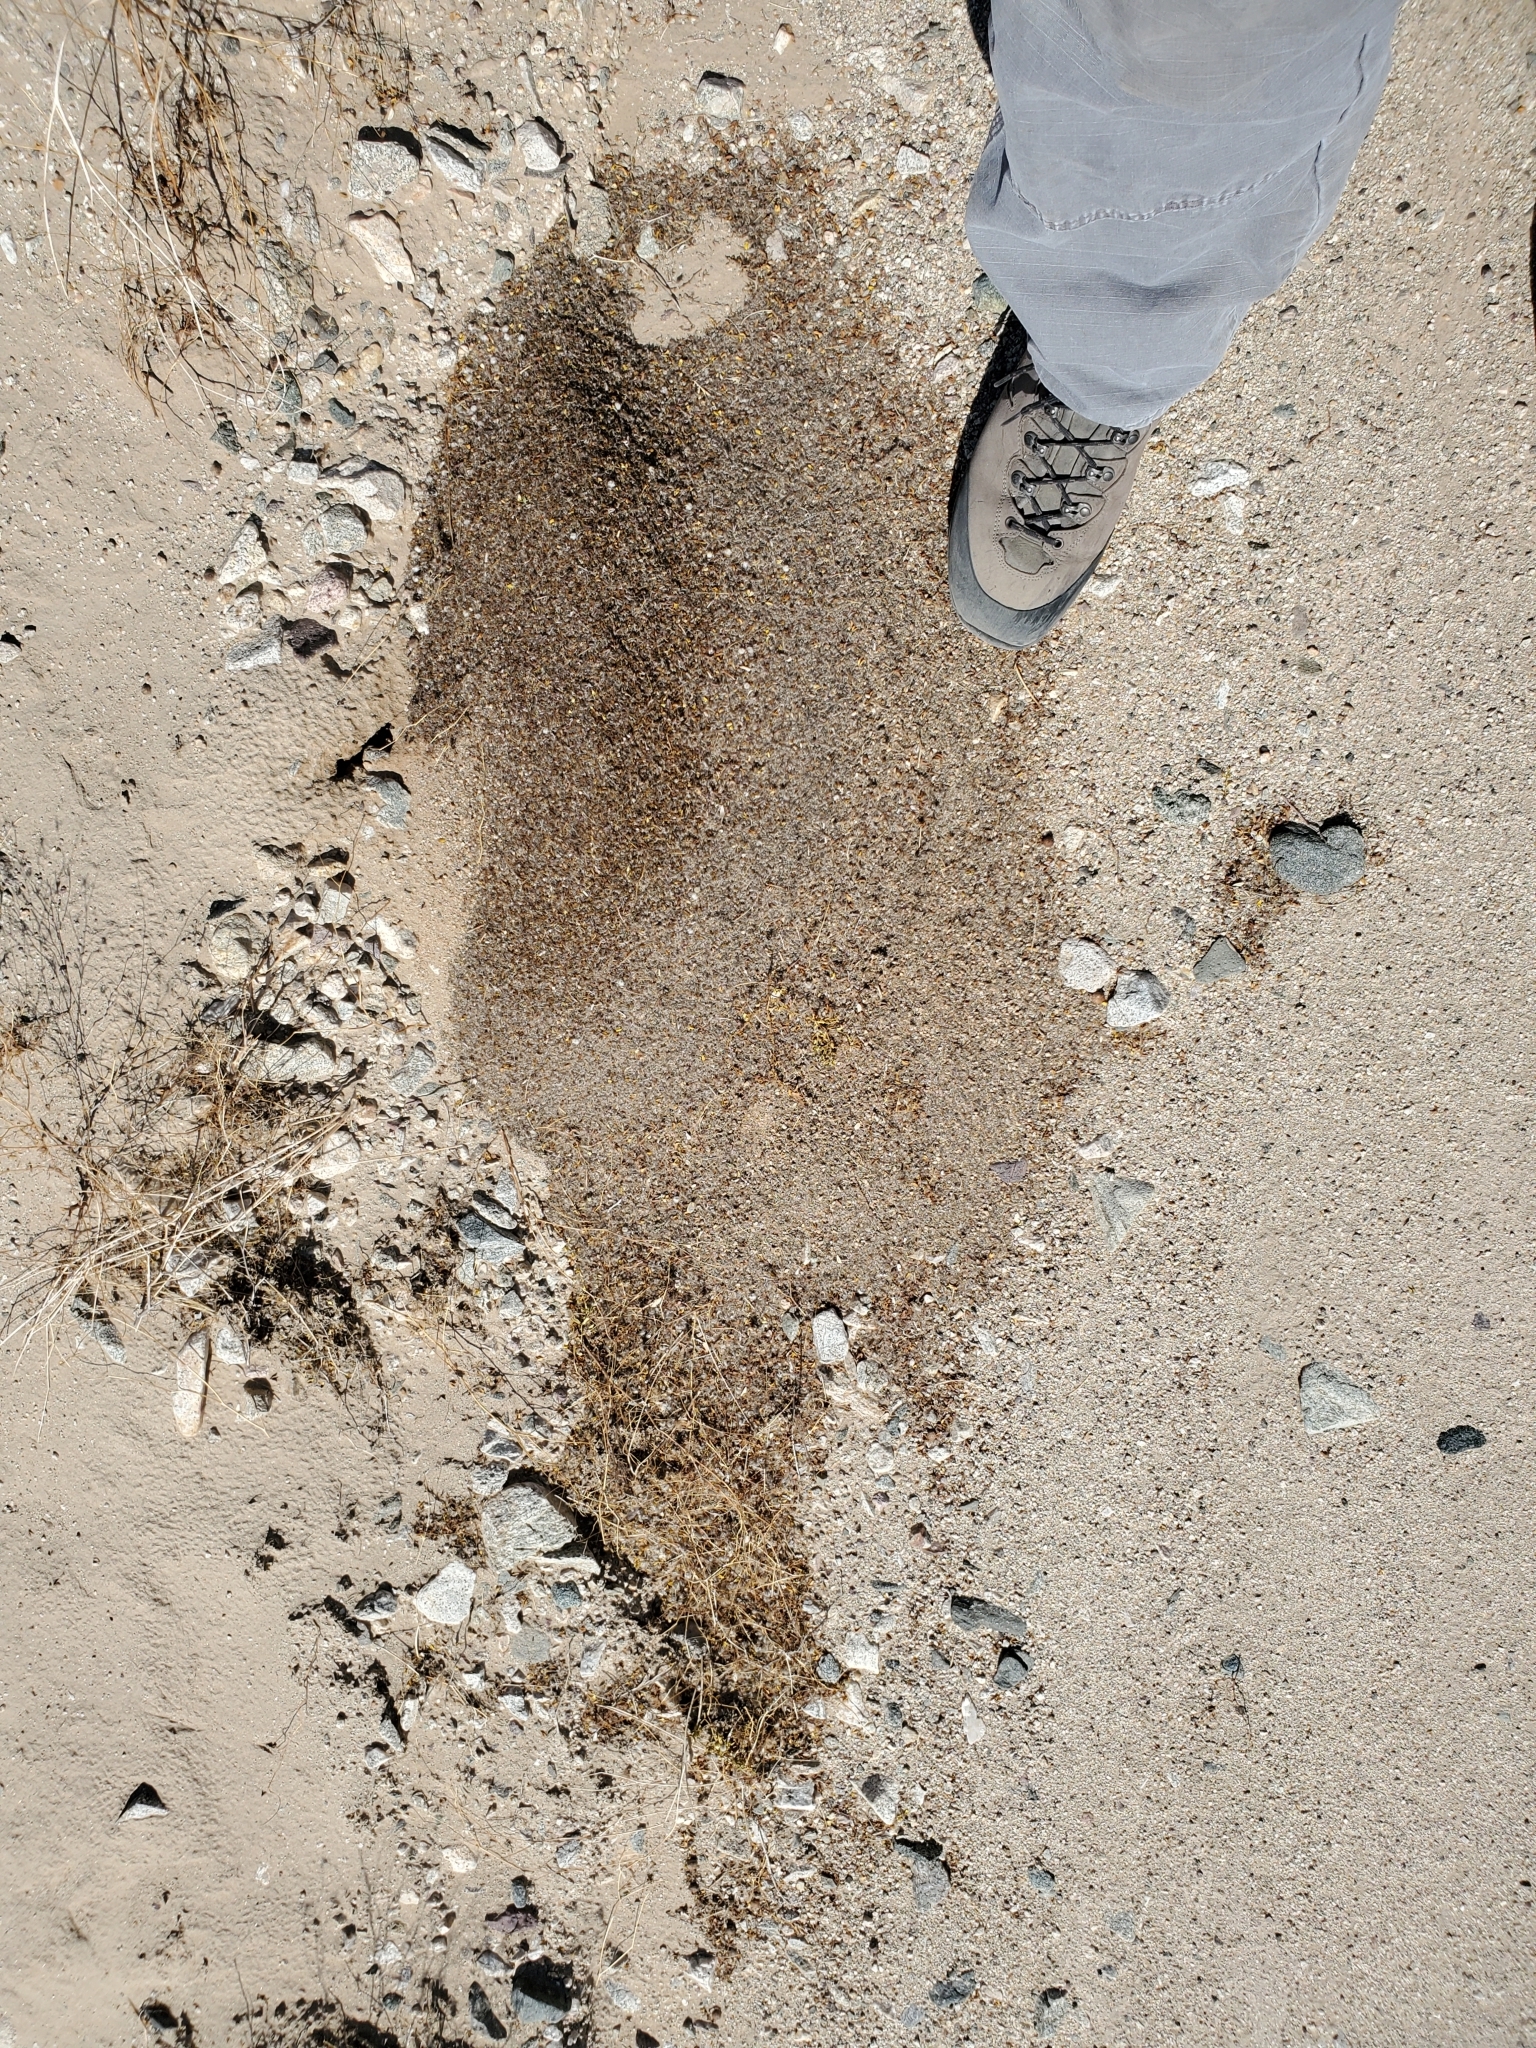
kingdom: Animalia
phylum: Arthropoda
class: Insecta
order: Hymenoptera
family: Formicidae
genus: Messor
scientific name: Messor pergandei
